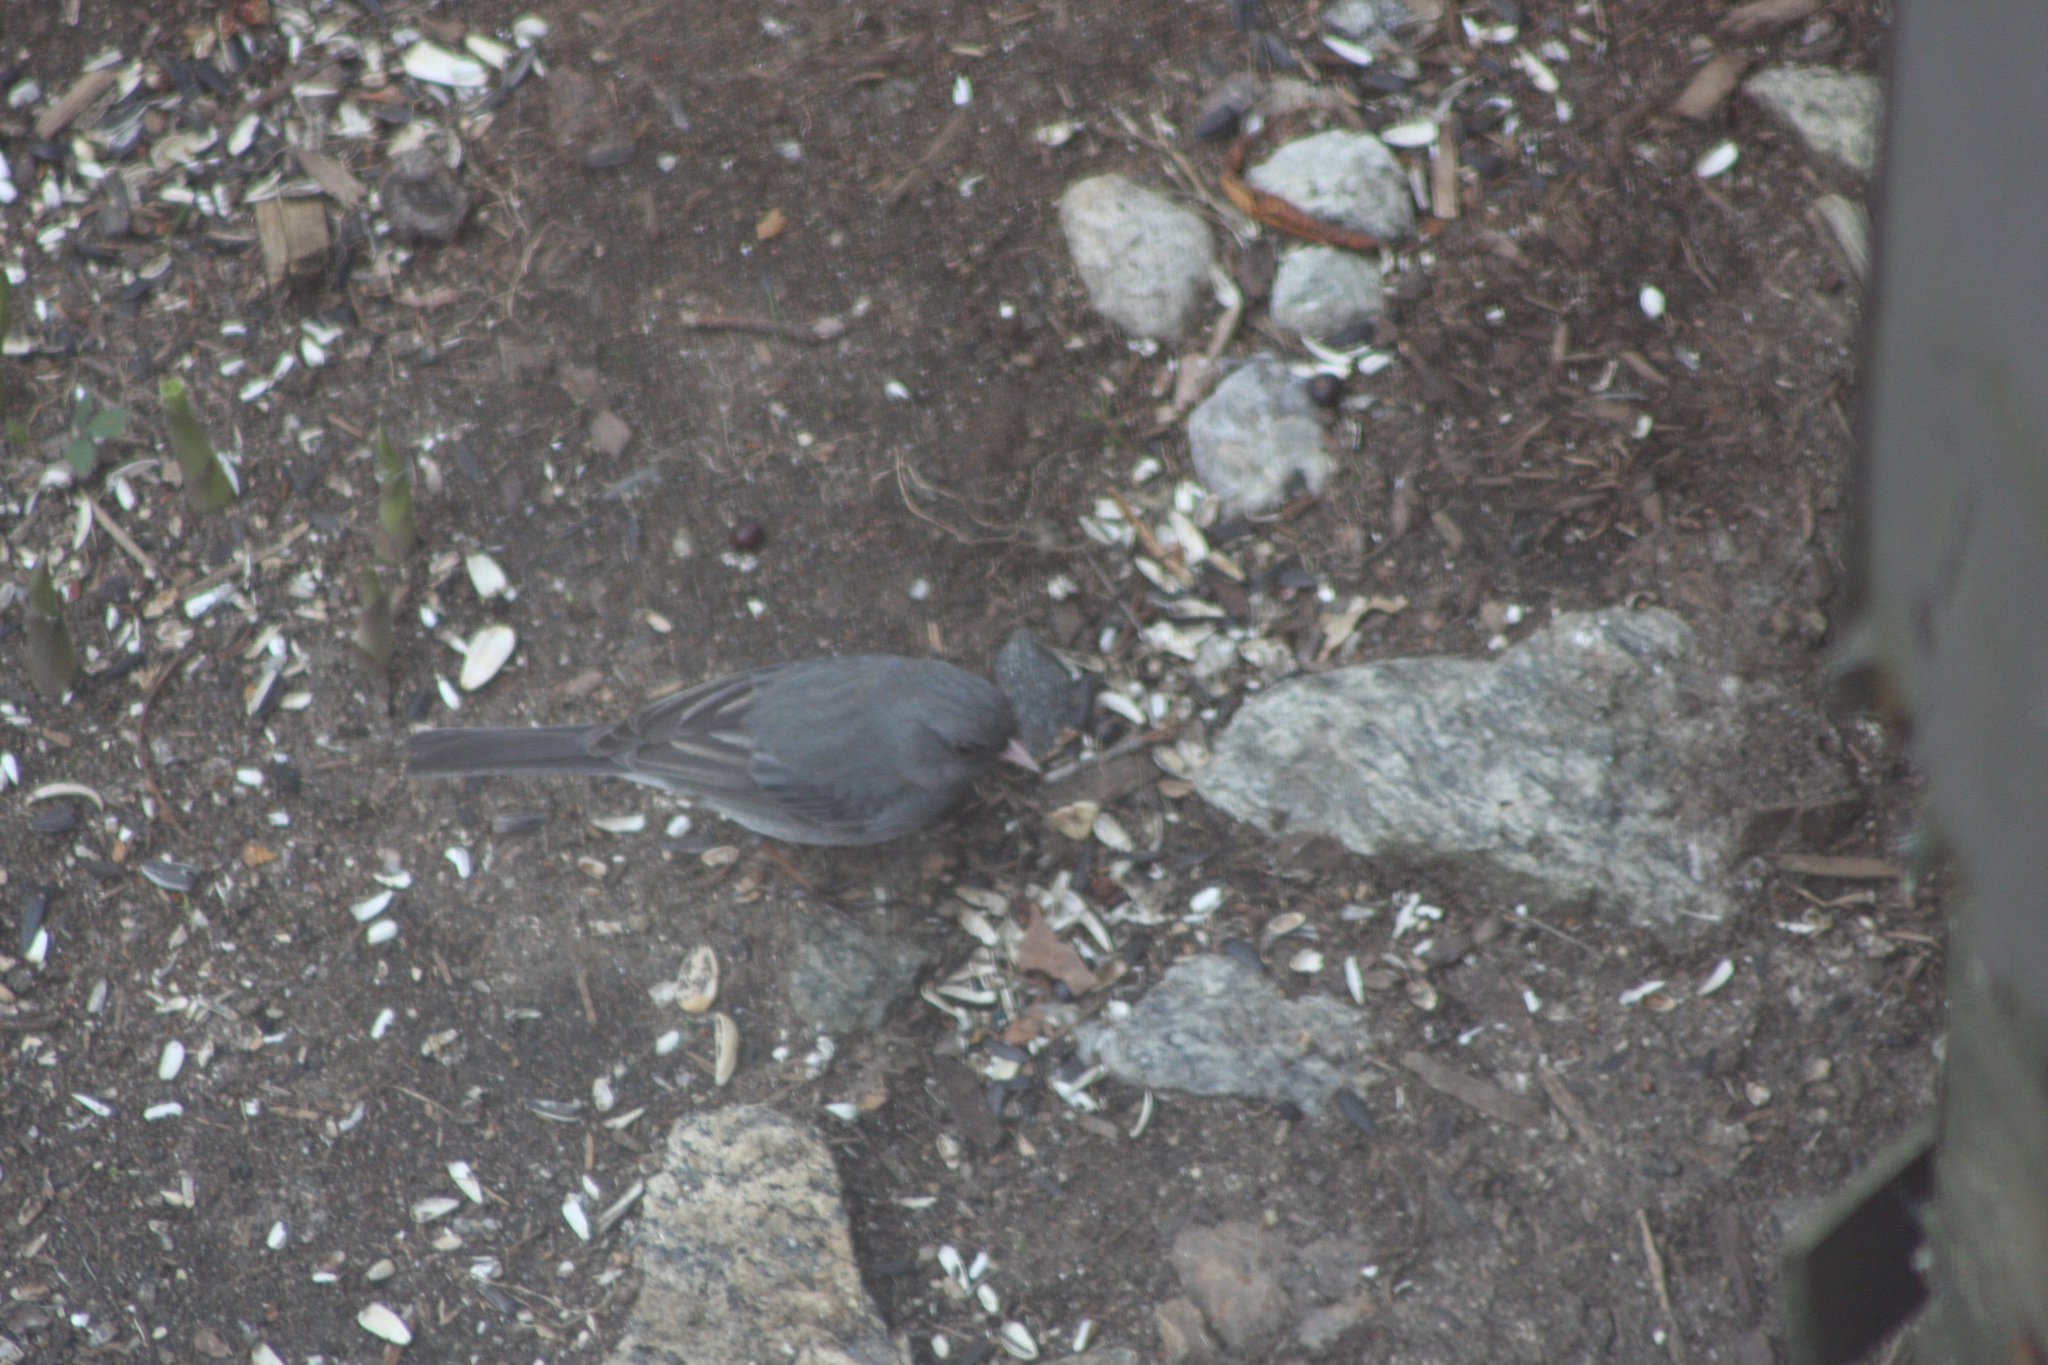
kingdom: Animalia
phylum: Chordata
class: Aves
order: Passeriformes
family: Passerellidae
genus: Junco
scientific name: Junco hyemalis
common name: Dark-eyed junco
